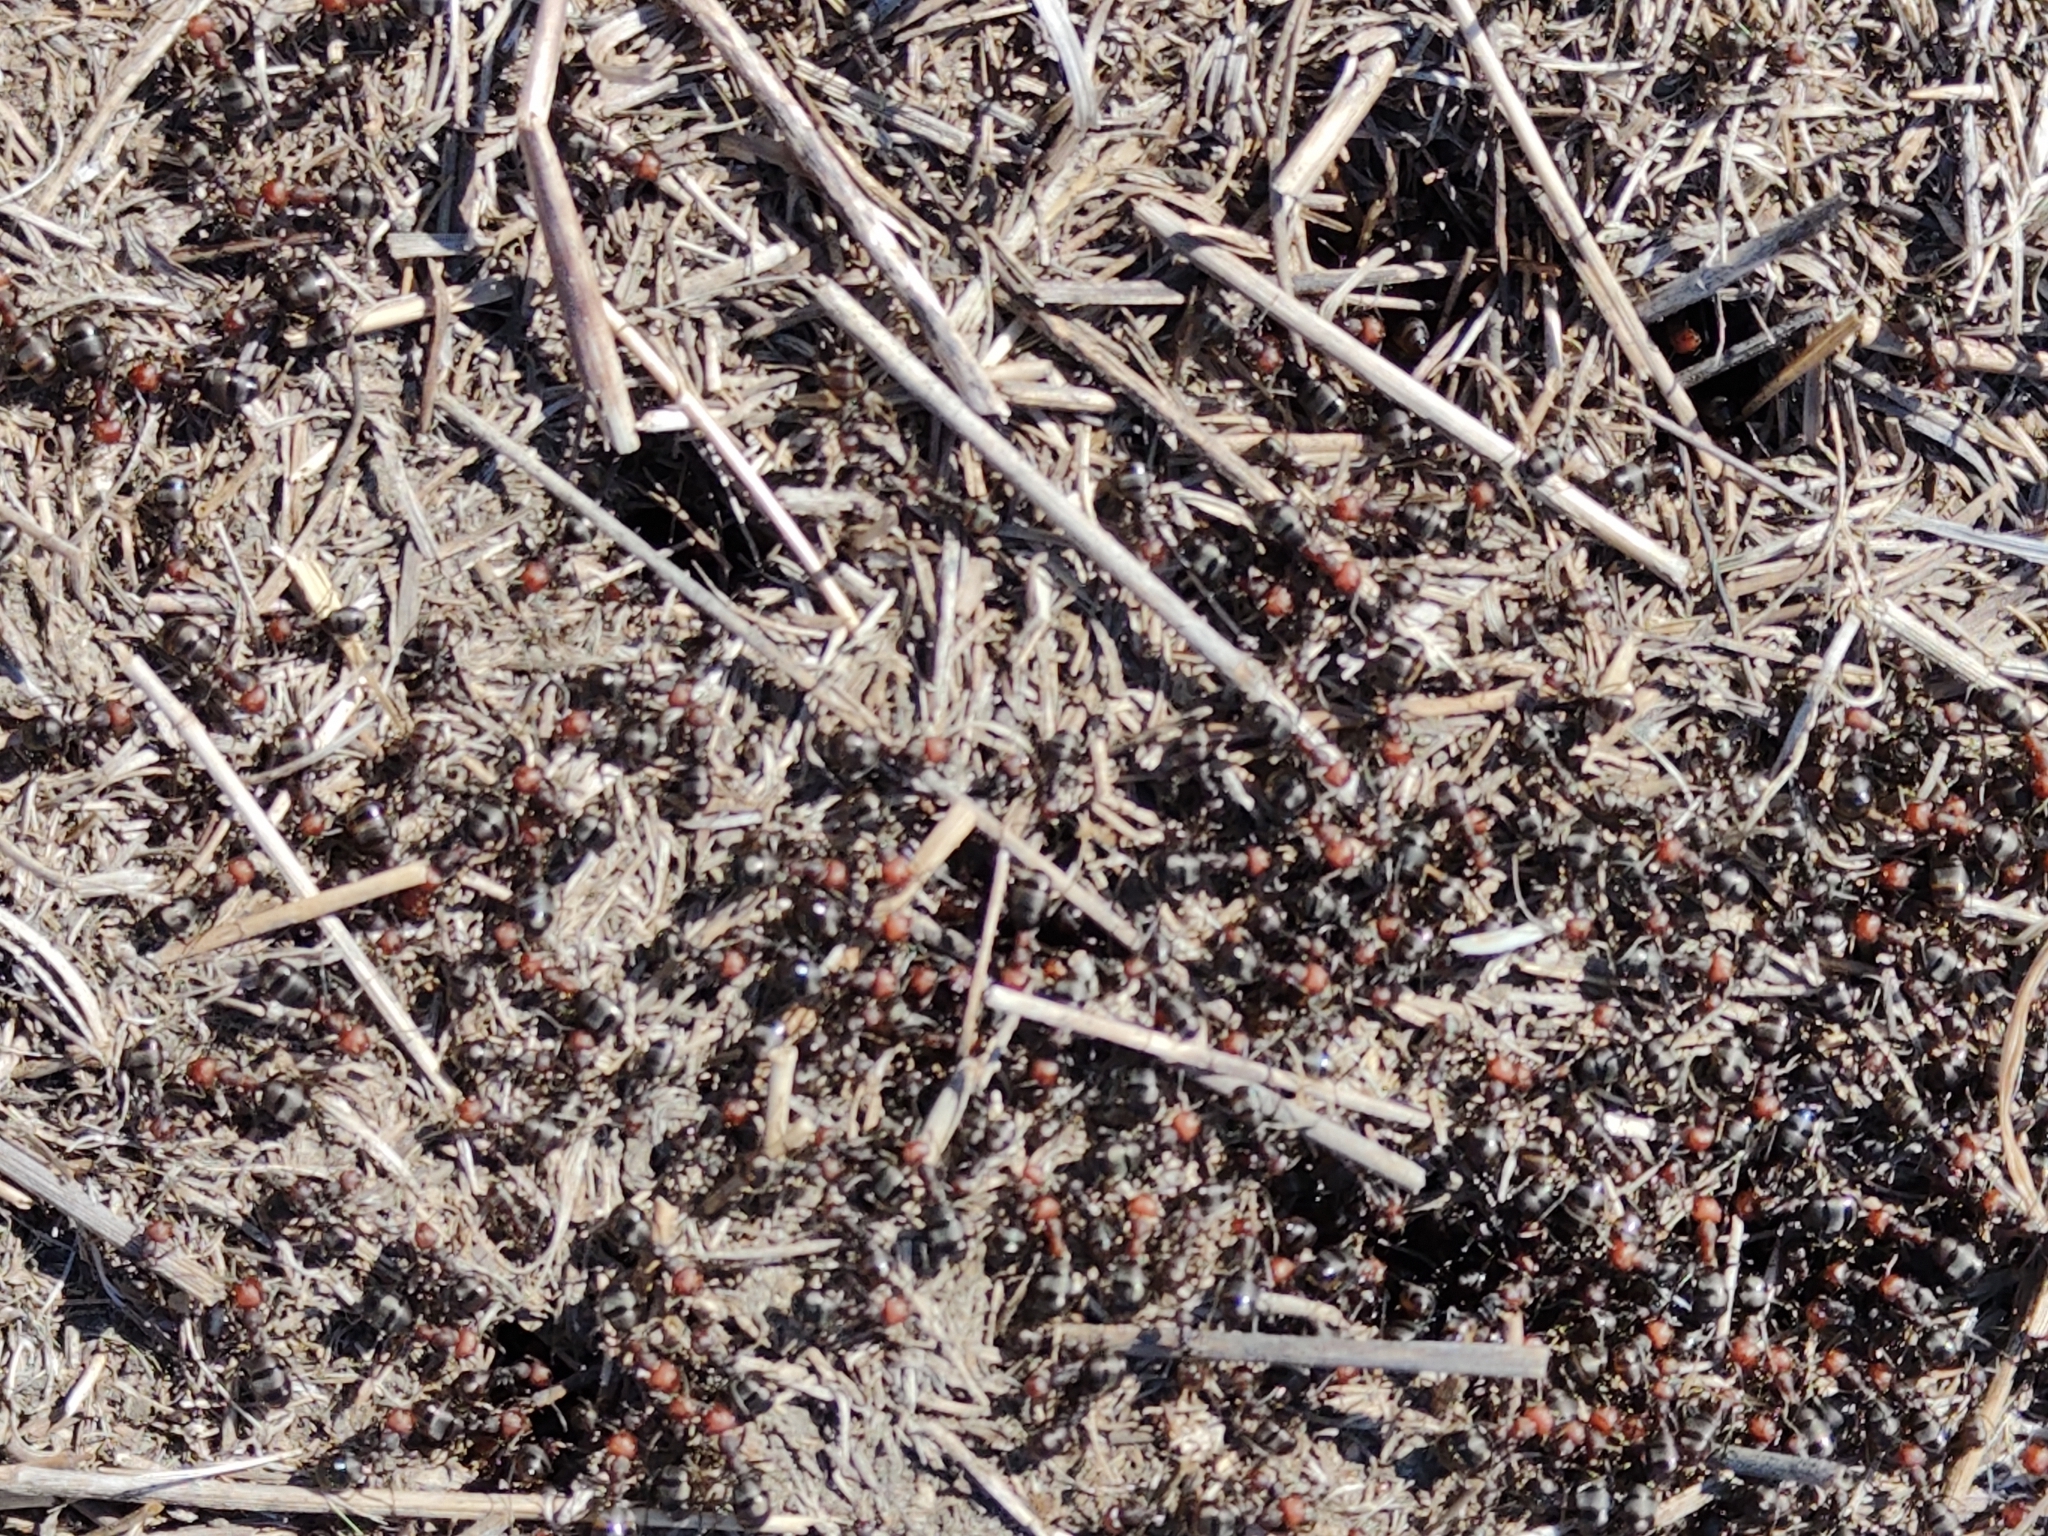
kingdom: Animalia
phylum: Arthropoda
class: Insecta
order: Hymenoptera
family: Formicidae
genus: Formica
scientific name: Formica obscuripes
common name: Western thatching ant
